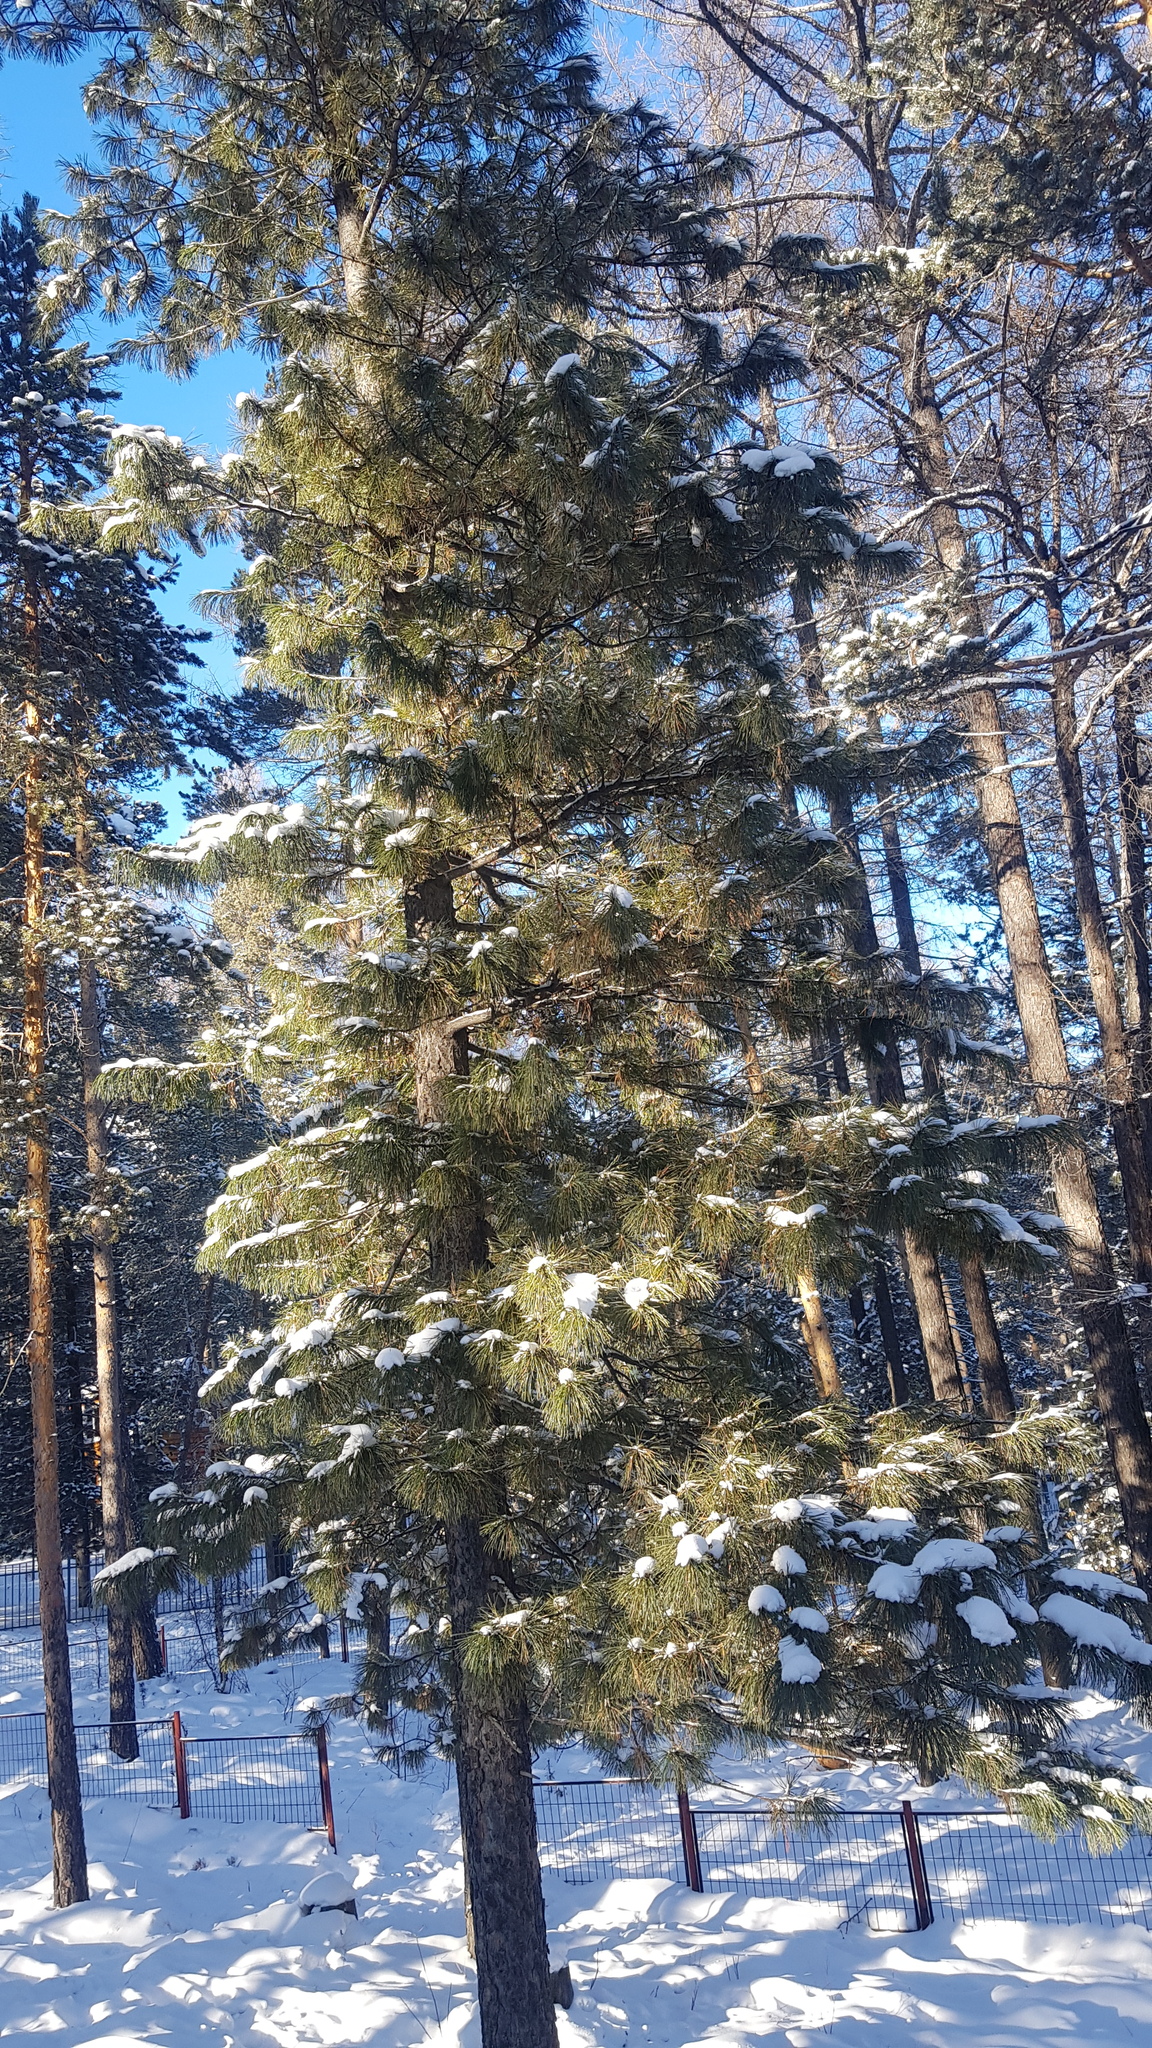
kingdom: Plantae
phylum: Tracheophyta
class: Pinopsida
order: Pinales
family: Pinaceae
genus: Pinus
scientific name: Pinus sibirica
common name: Siberian pine
